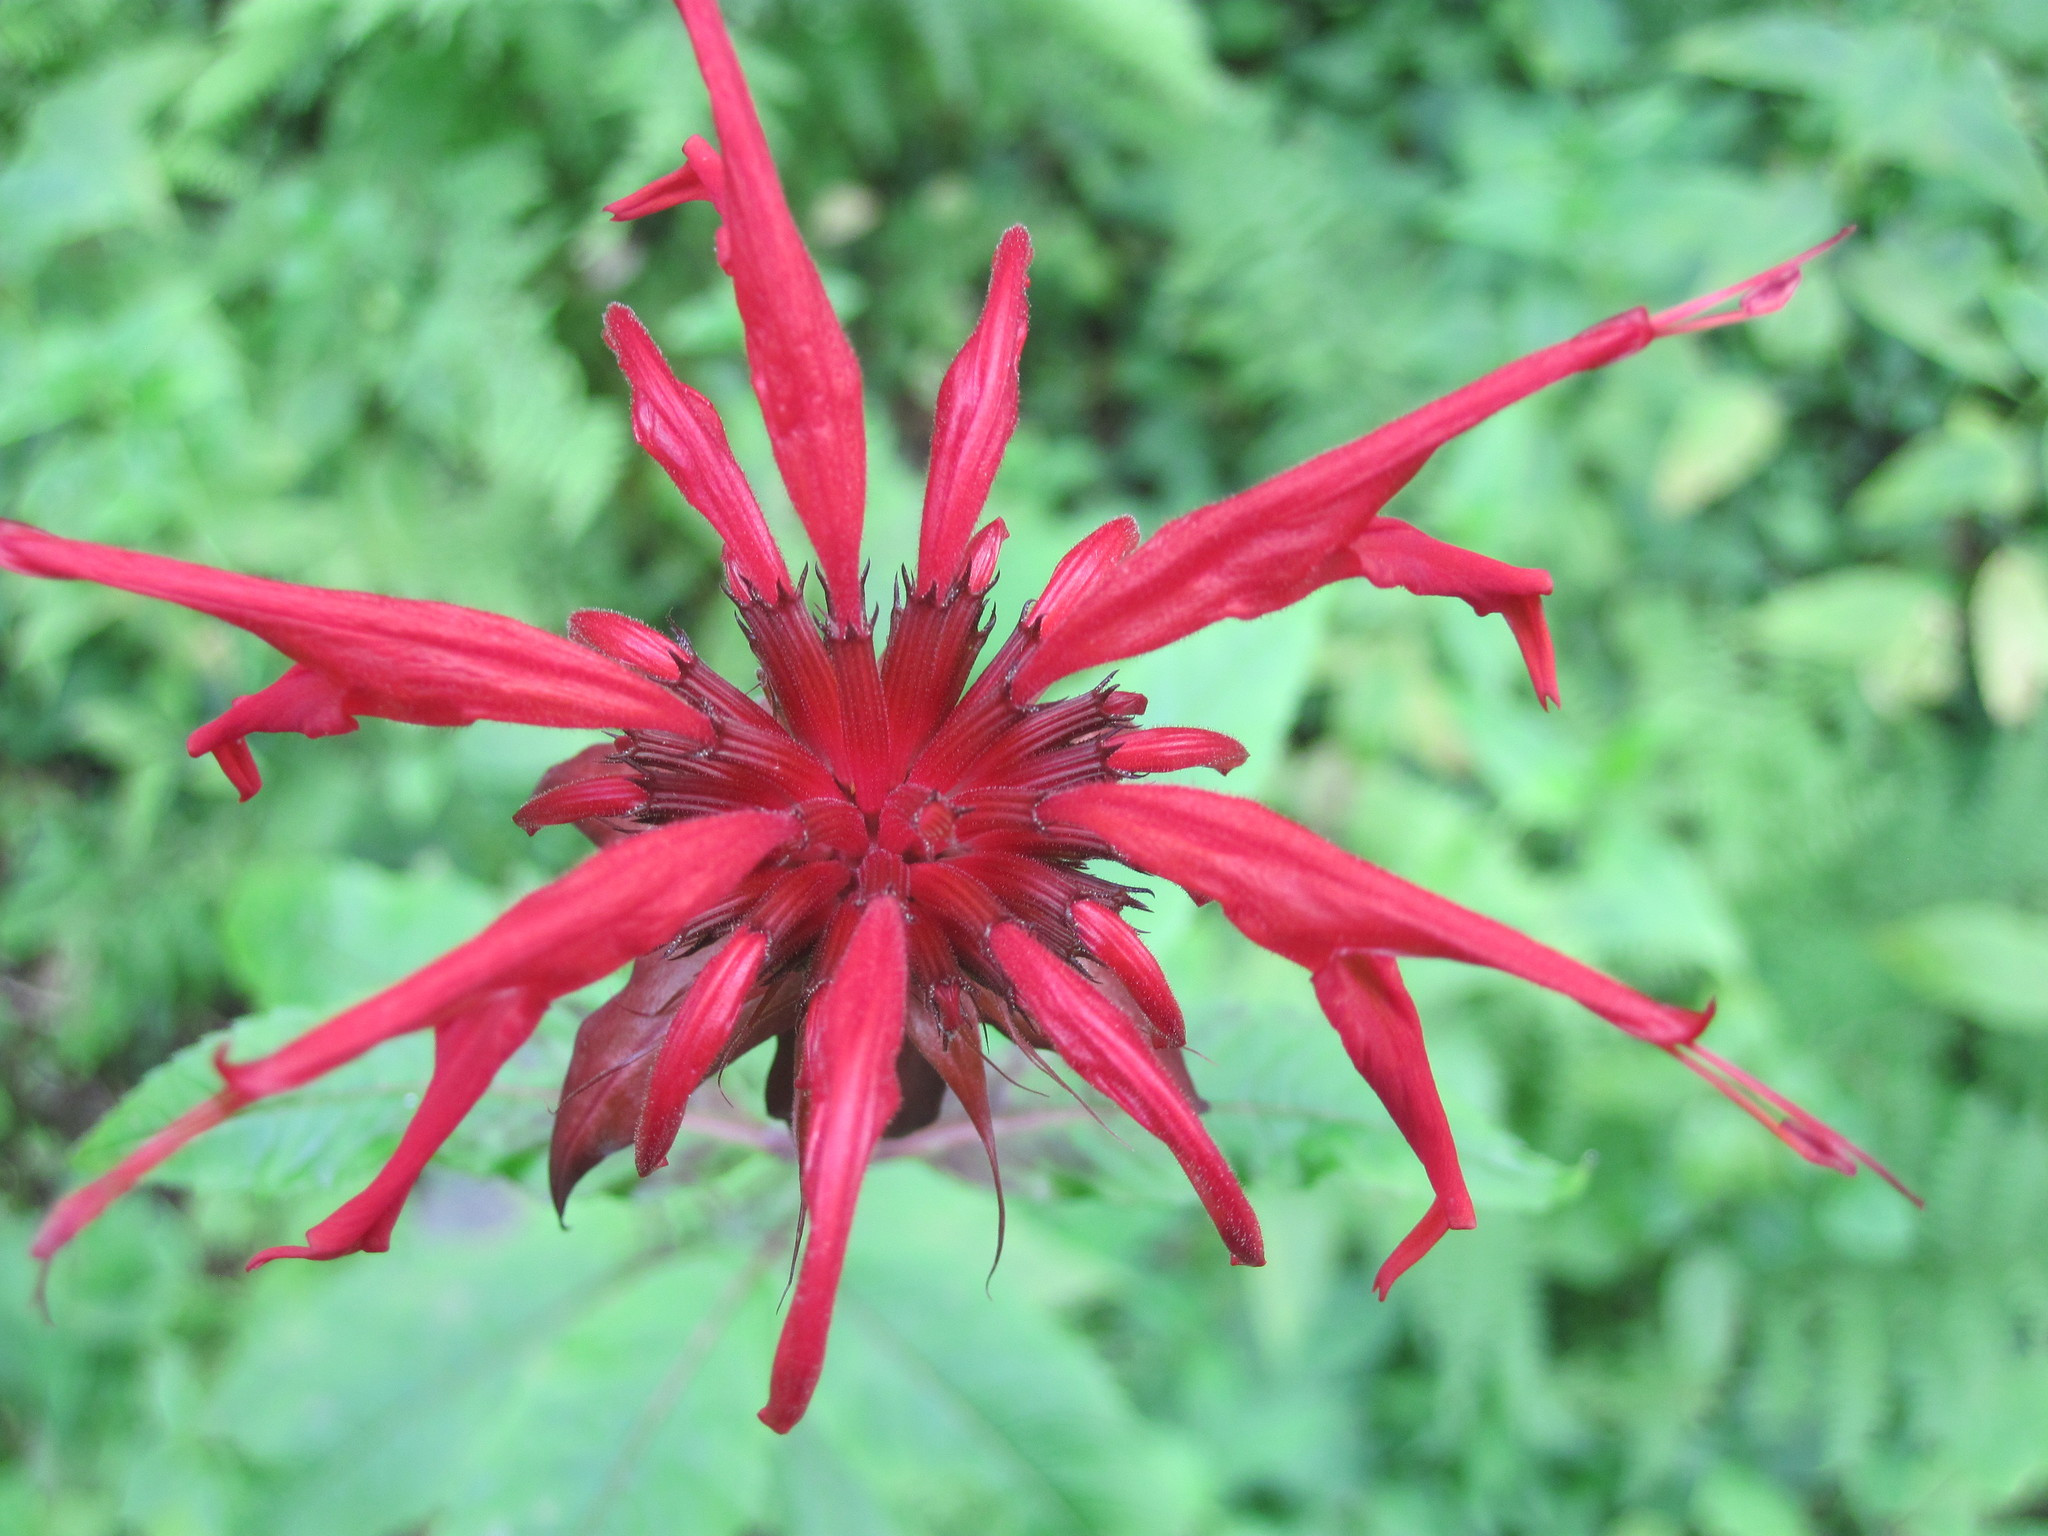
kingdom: Plantae
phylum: Tracheophyta
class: Magnoliopsida
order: Lamiales
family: Lamiaceae
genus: Monarda
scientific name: Monarda didyma
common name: Beebalm
